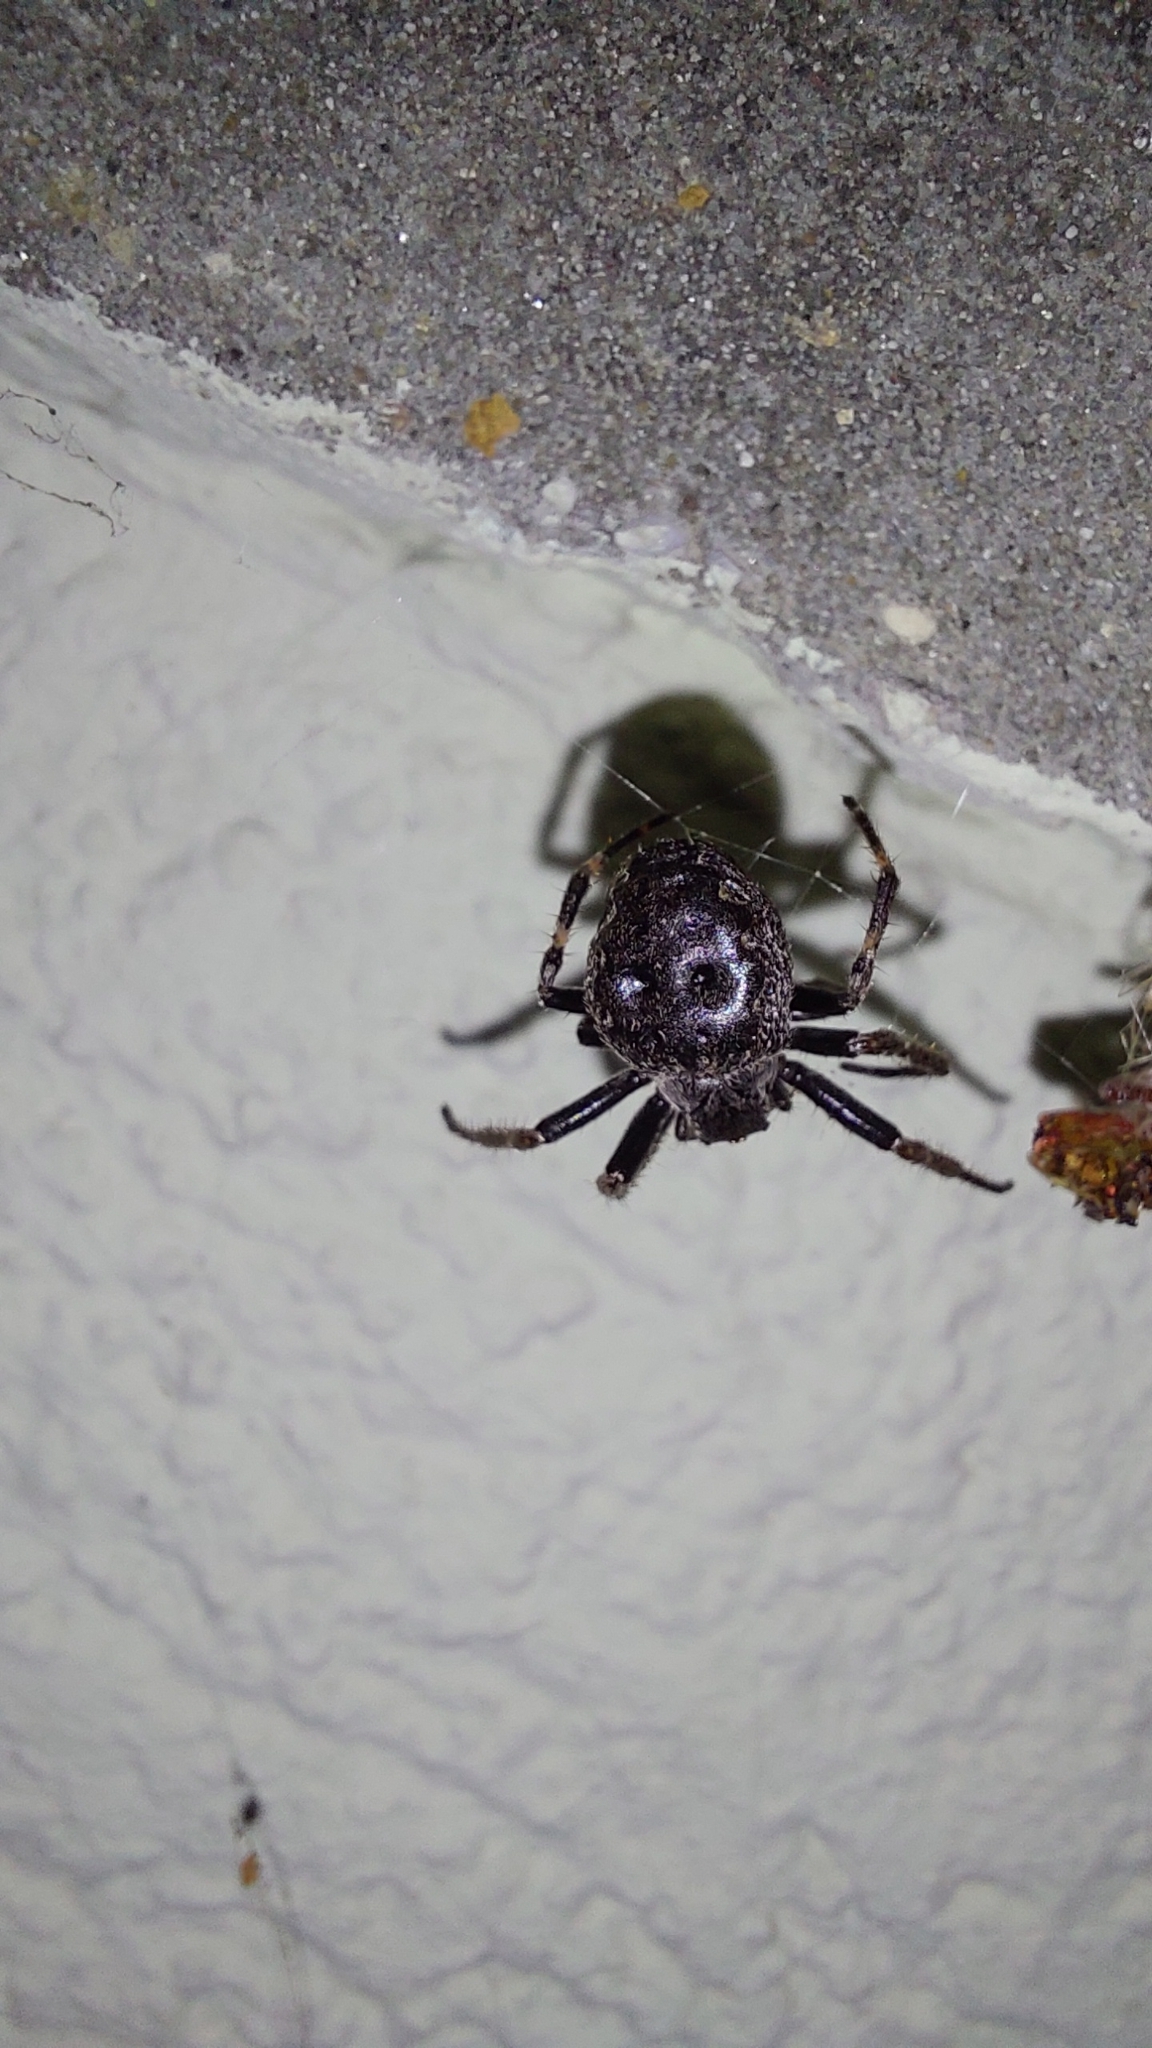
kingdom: Animalia
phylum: Arthropoda
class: Arachnida
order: Araneae
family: Araneidae
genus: Nuctenea
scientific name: Nuctenea umbratica
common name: Toad spider
